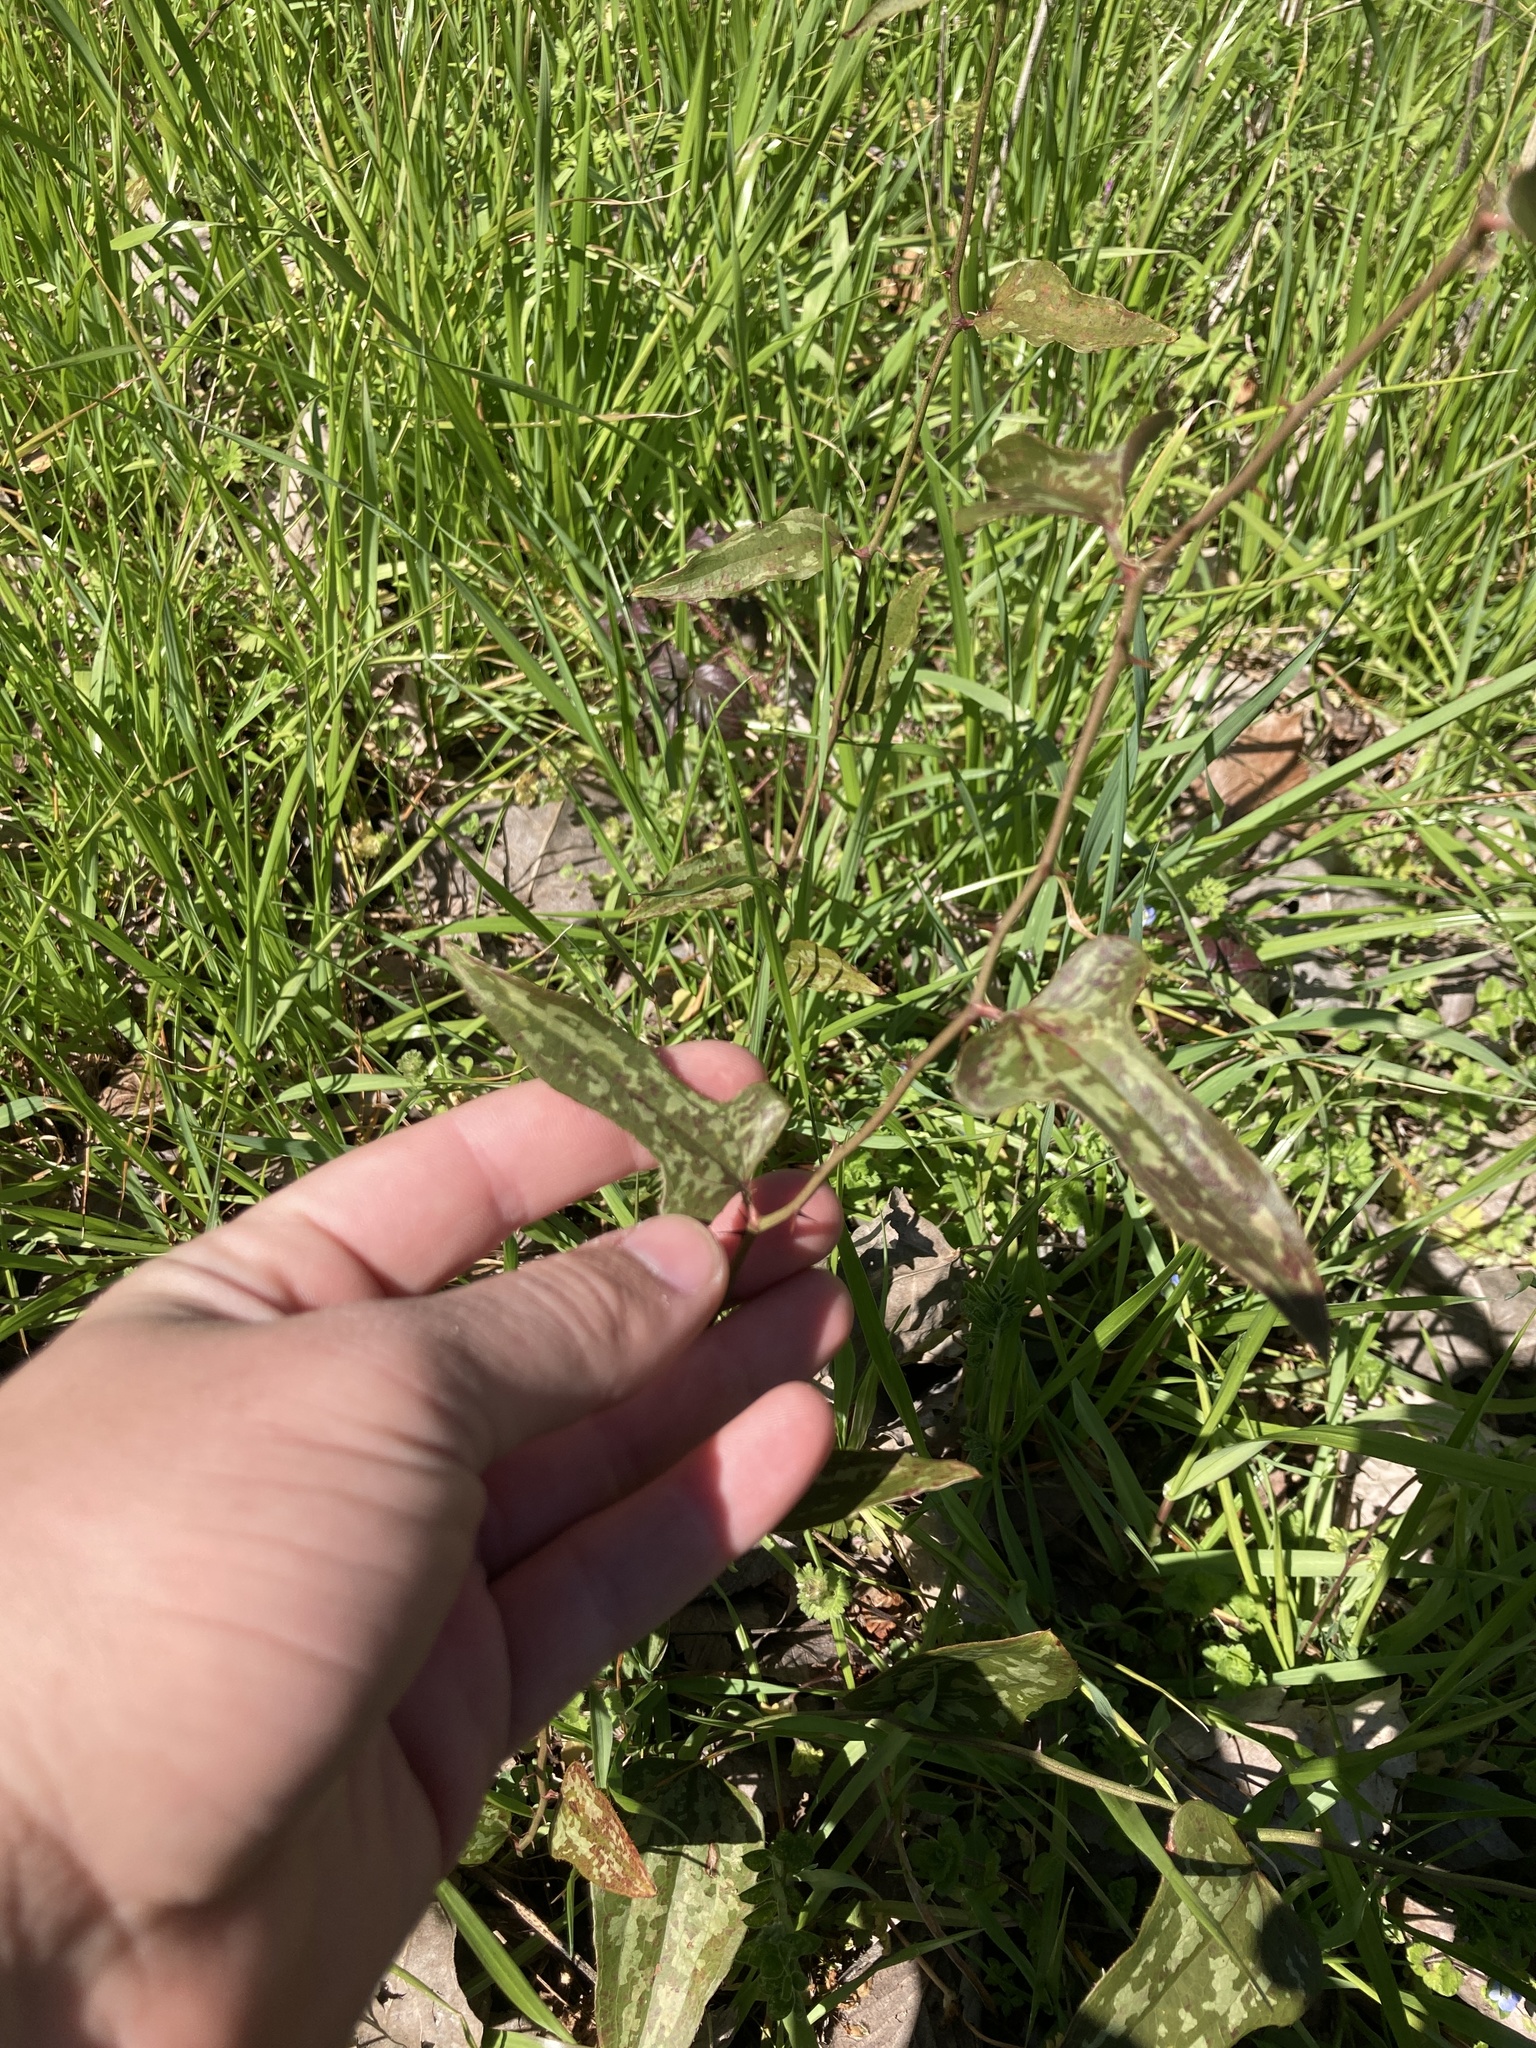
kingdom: Plantae
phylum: Tracheophyta
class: Liliopsida
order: Liliales
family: Smilacaceae
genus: Smilax
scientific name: Smilax bona-nox
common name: Catbrier
